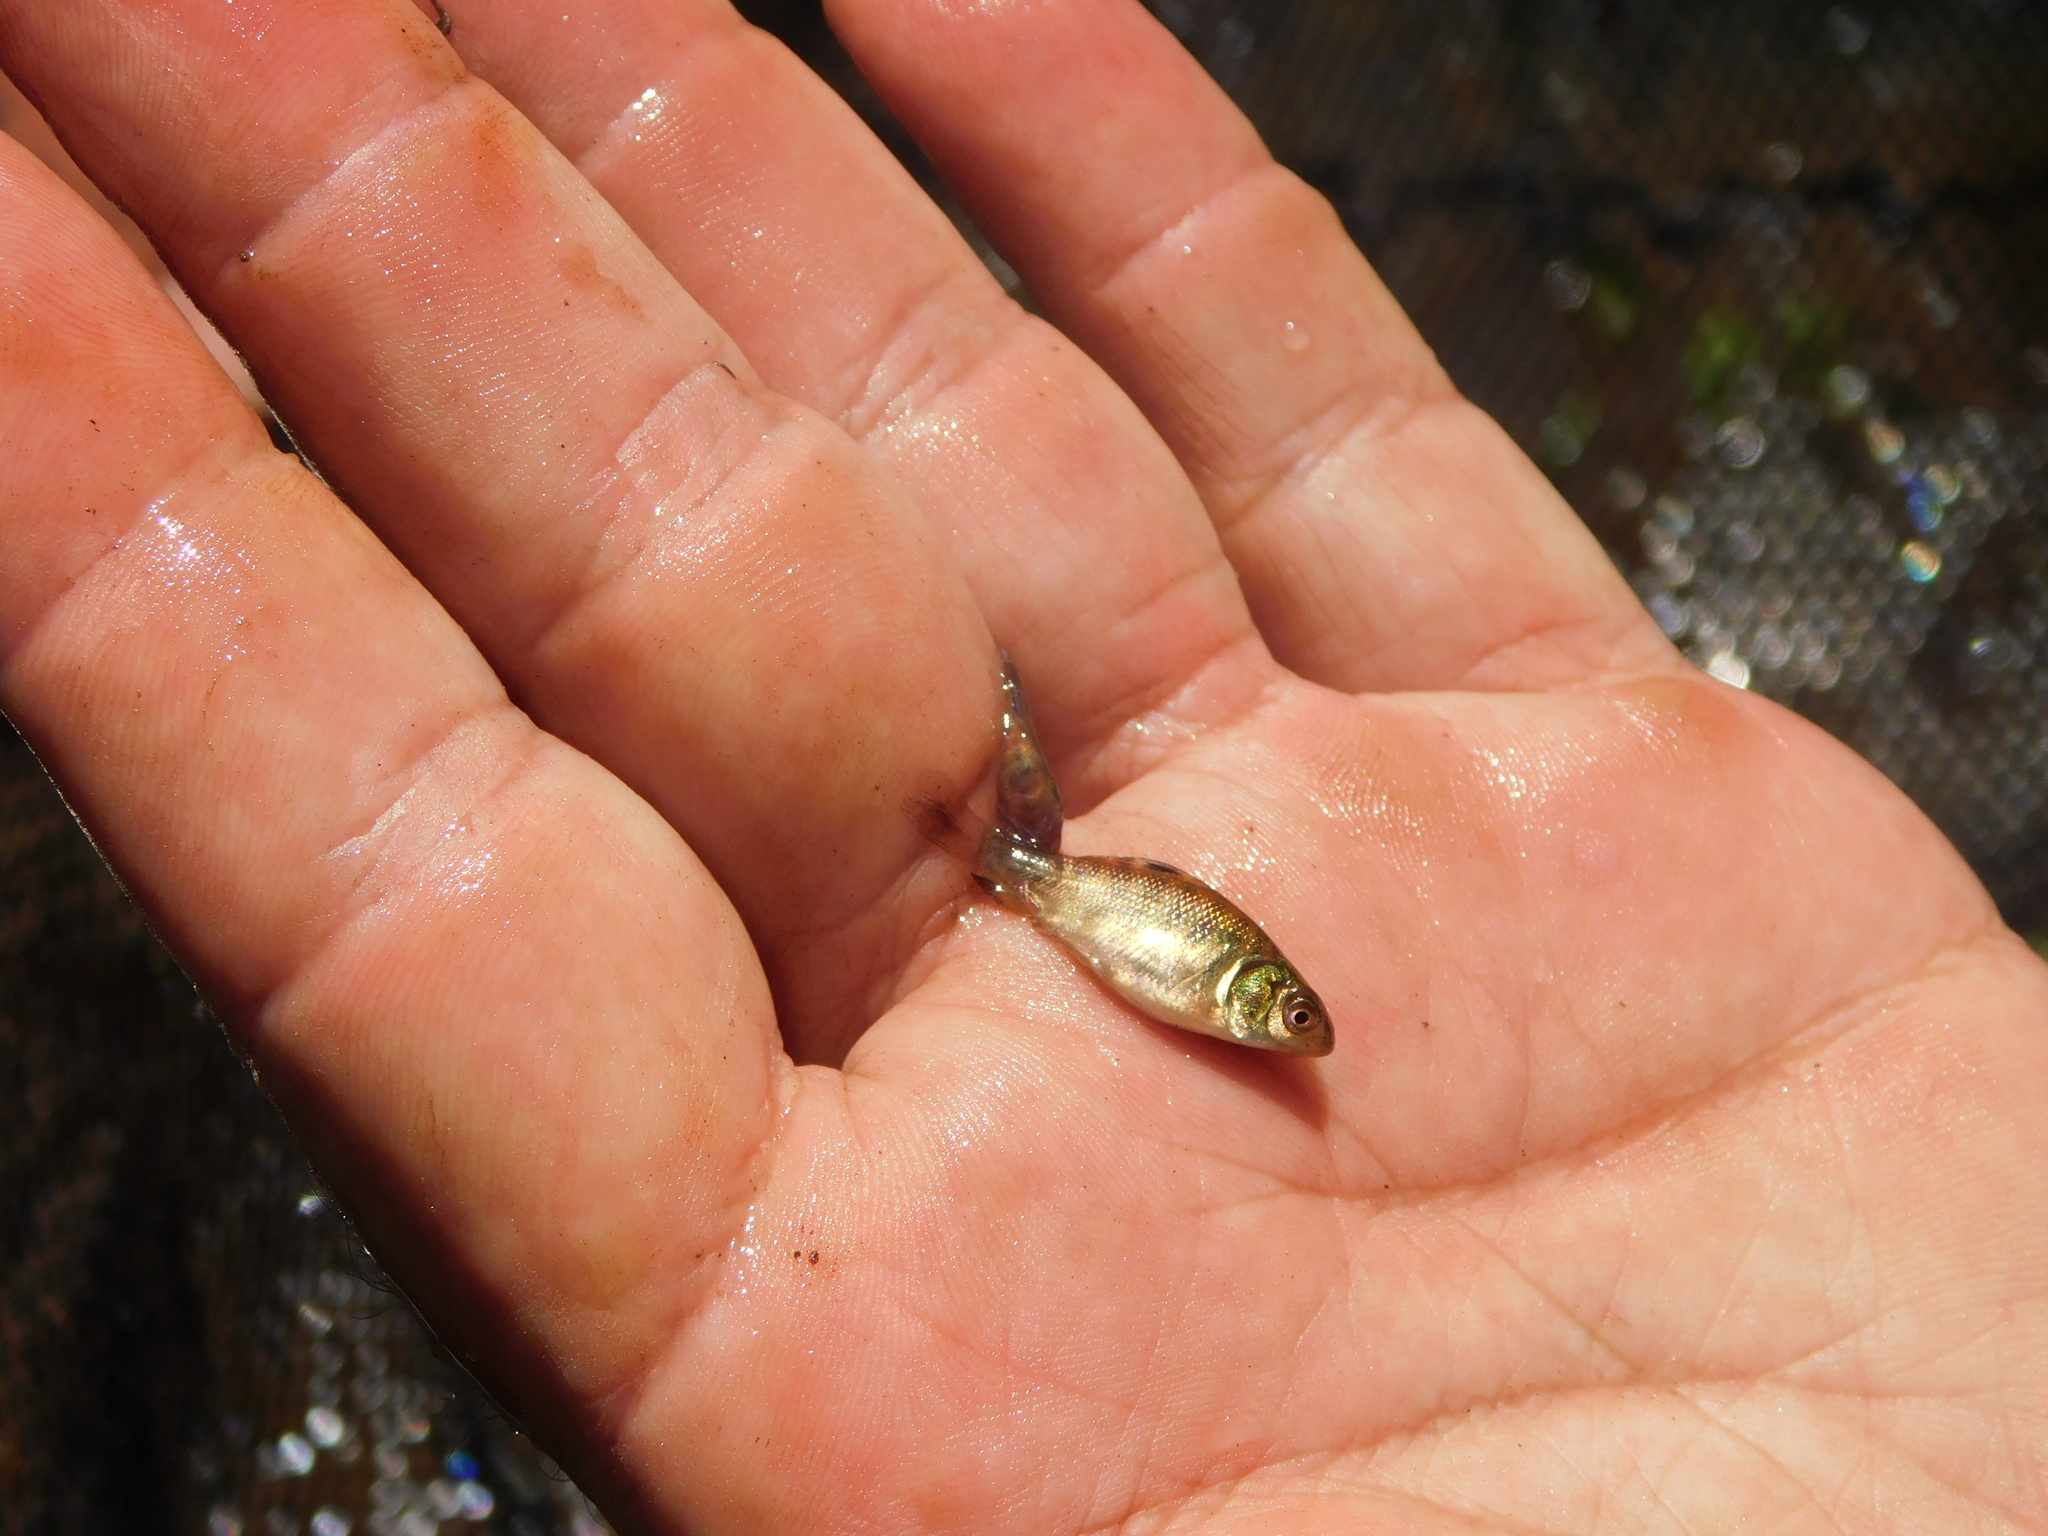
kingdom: Animalia
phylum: Chordata
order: Characiformes
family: Prochilodontidae
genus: Prochilodus
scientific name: Prochilodus lineatus
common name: Curimbata
